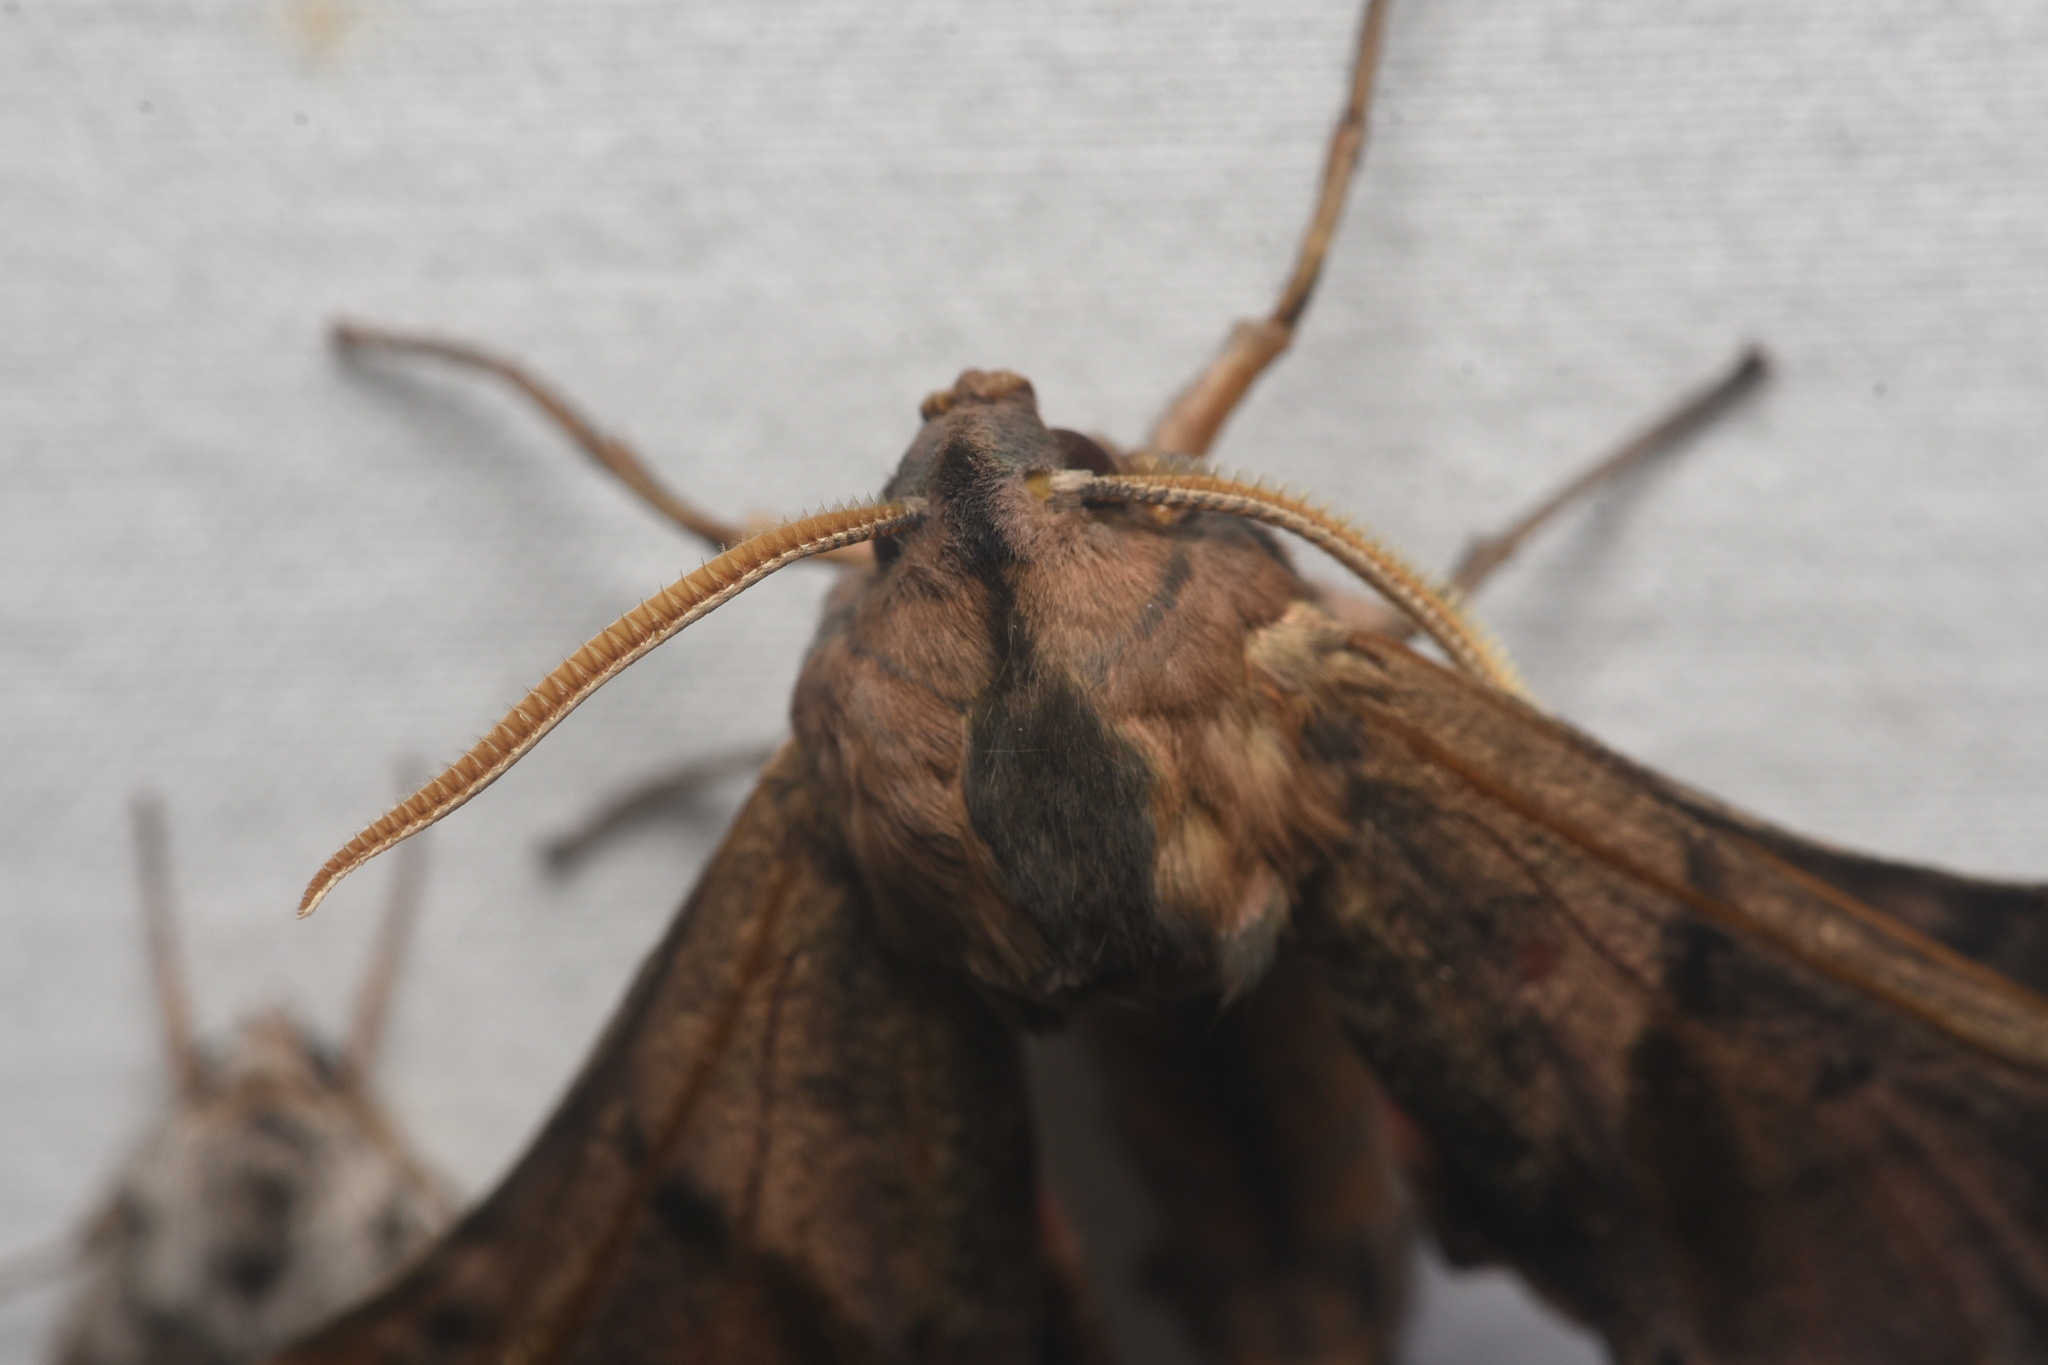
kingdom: Animalia
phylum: Arthropoda
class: Insecta
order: Lepidoptera
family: Sphingidae
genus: Paonias
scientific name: Paonias excaecata
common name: Blind-eyed sphinx
